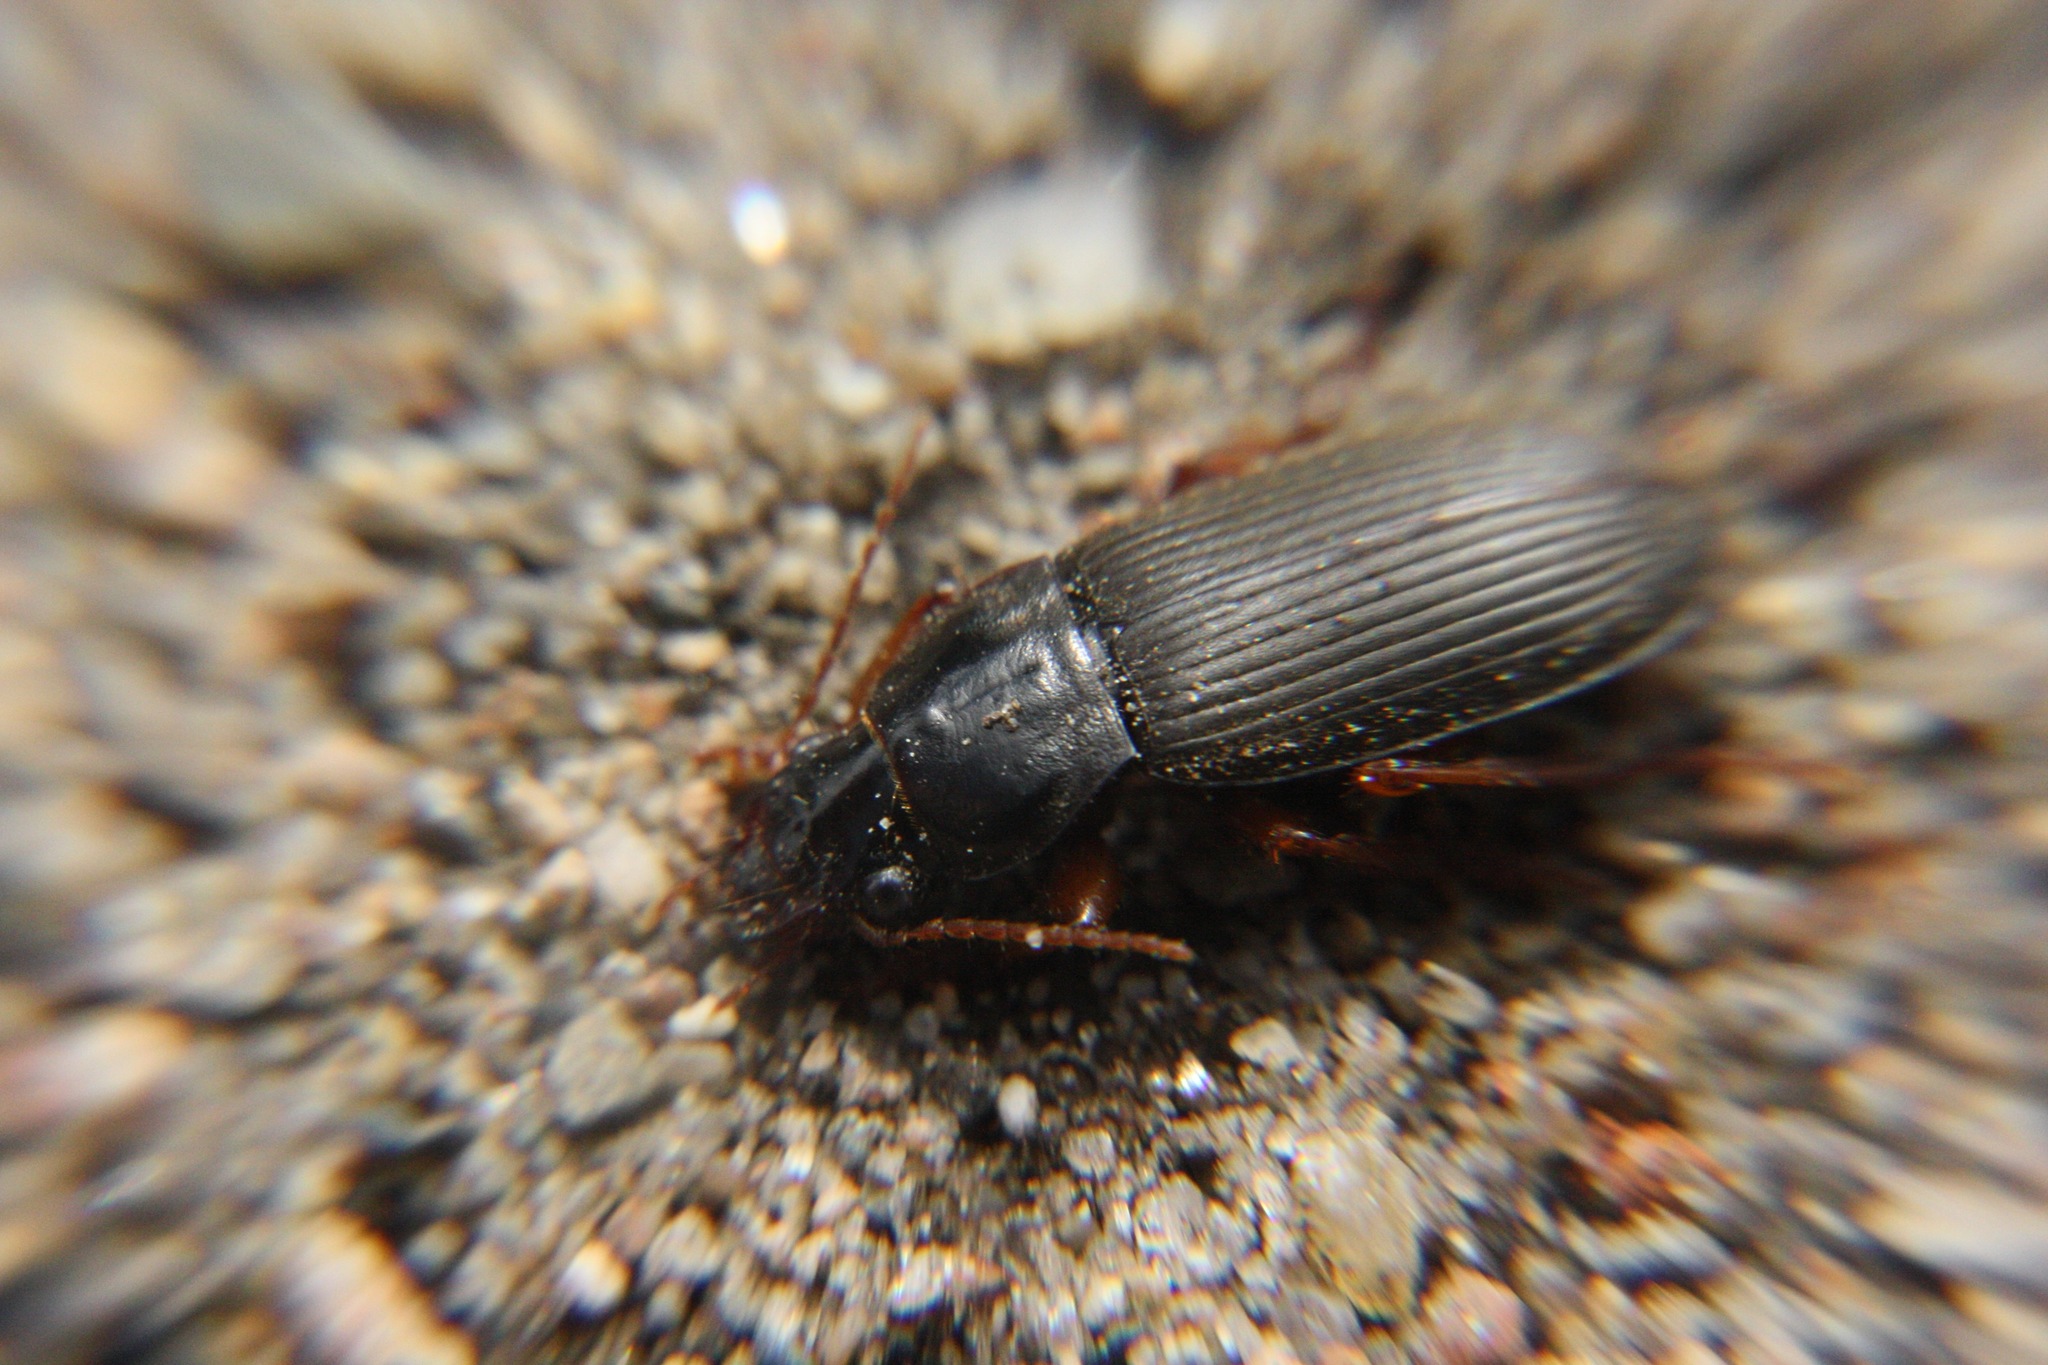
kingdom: Animalia
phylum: Arthropoda
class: Insecta
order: Coleoptera
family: Carabidae
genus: Harpalus
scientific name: Harpalus rufipes
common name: Strawberry harp ground beetle
